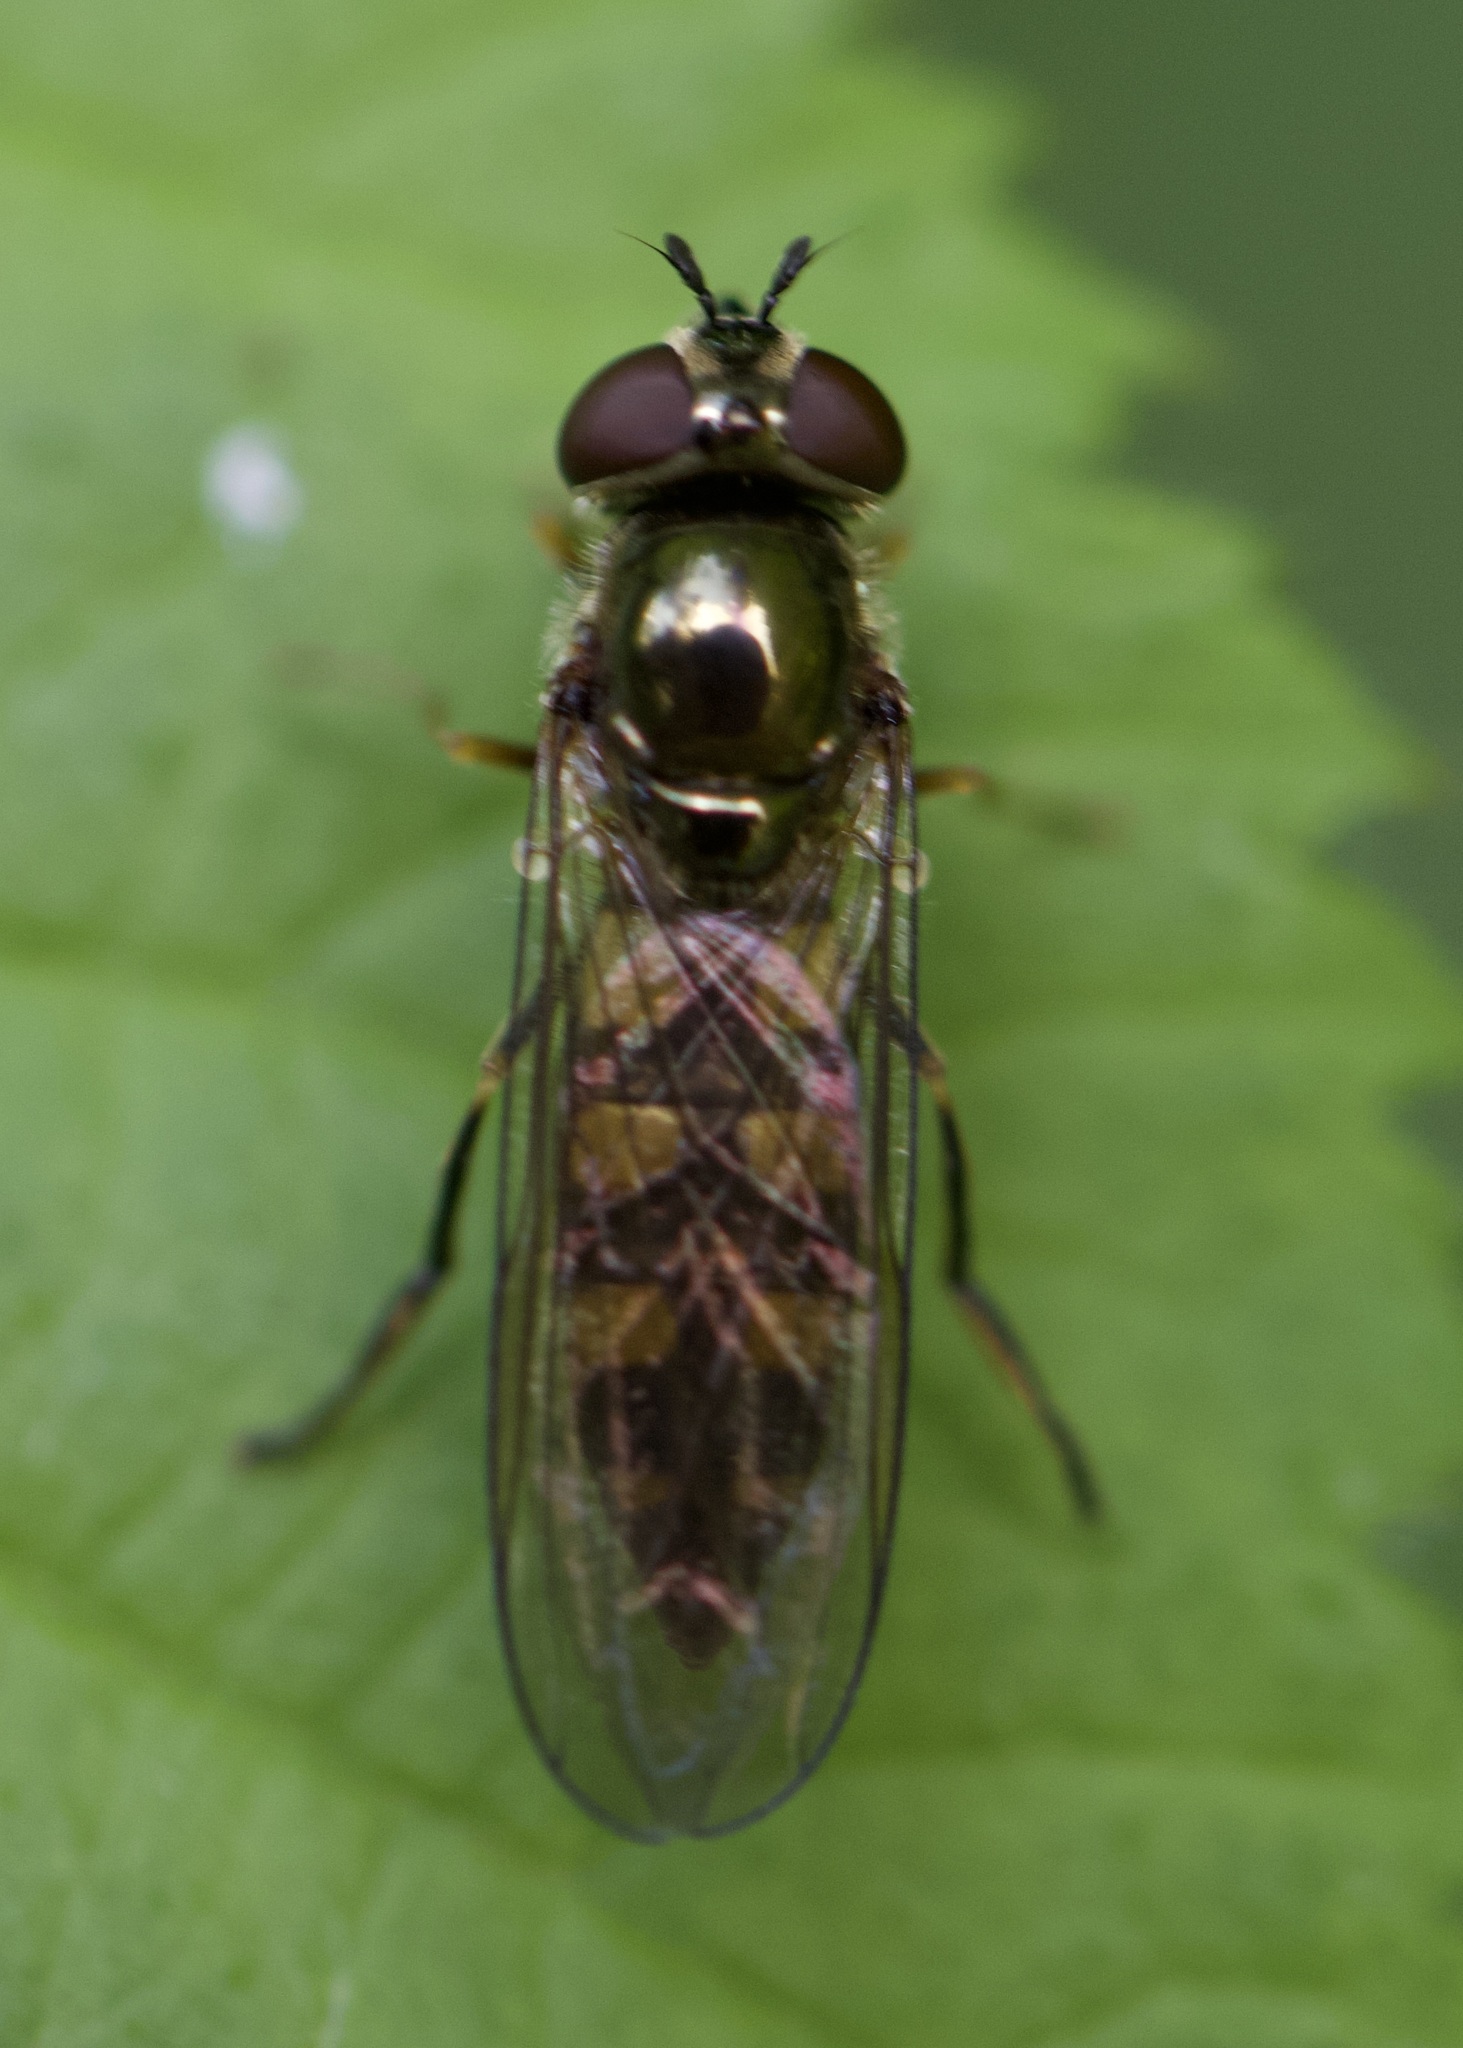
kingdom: Animalia
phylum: Arthropoda
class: Insecta
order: Diptera
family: Syrphidae
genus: Platycheirus
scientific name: Platycheirus ciliger
